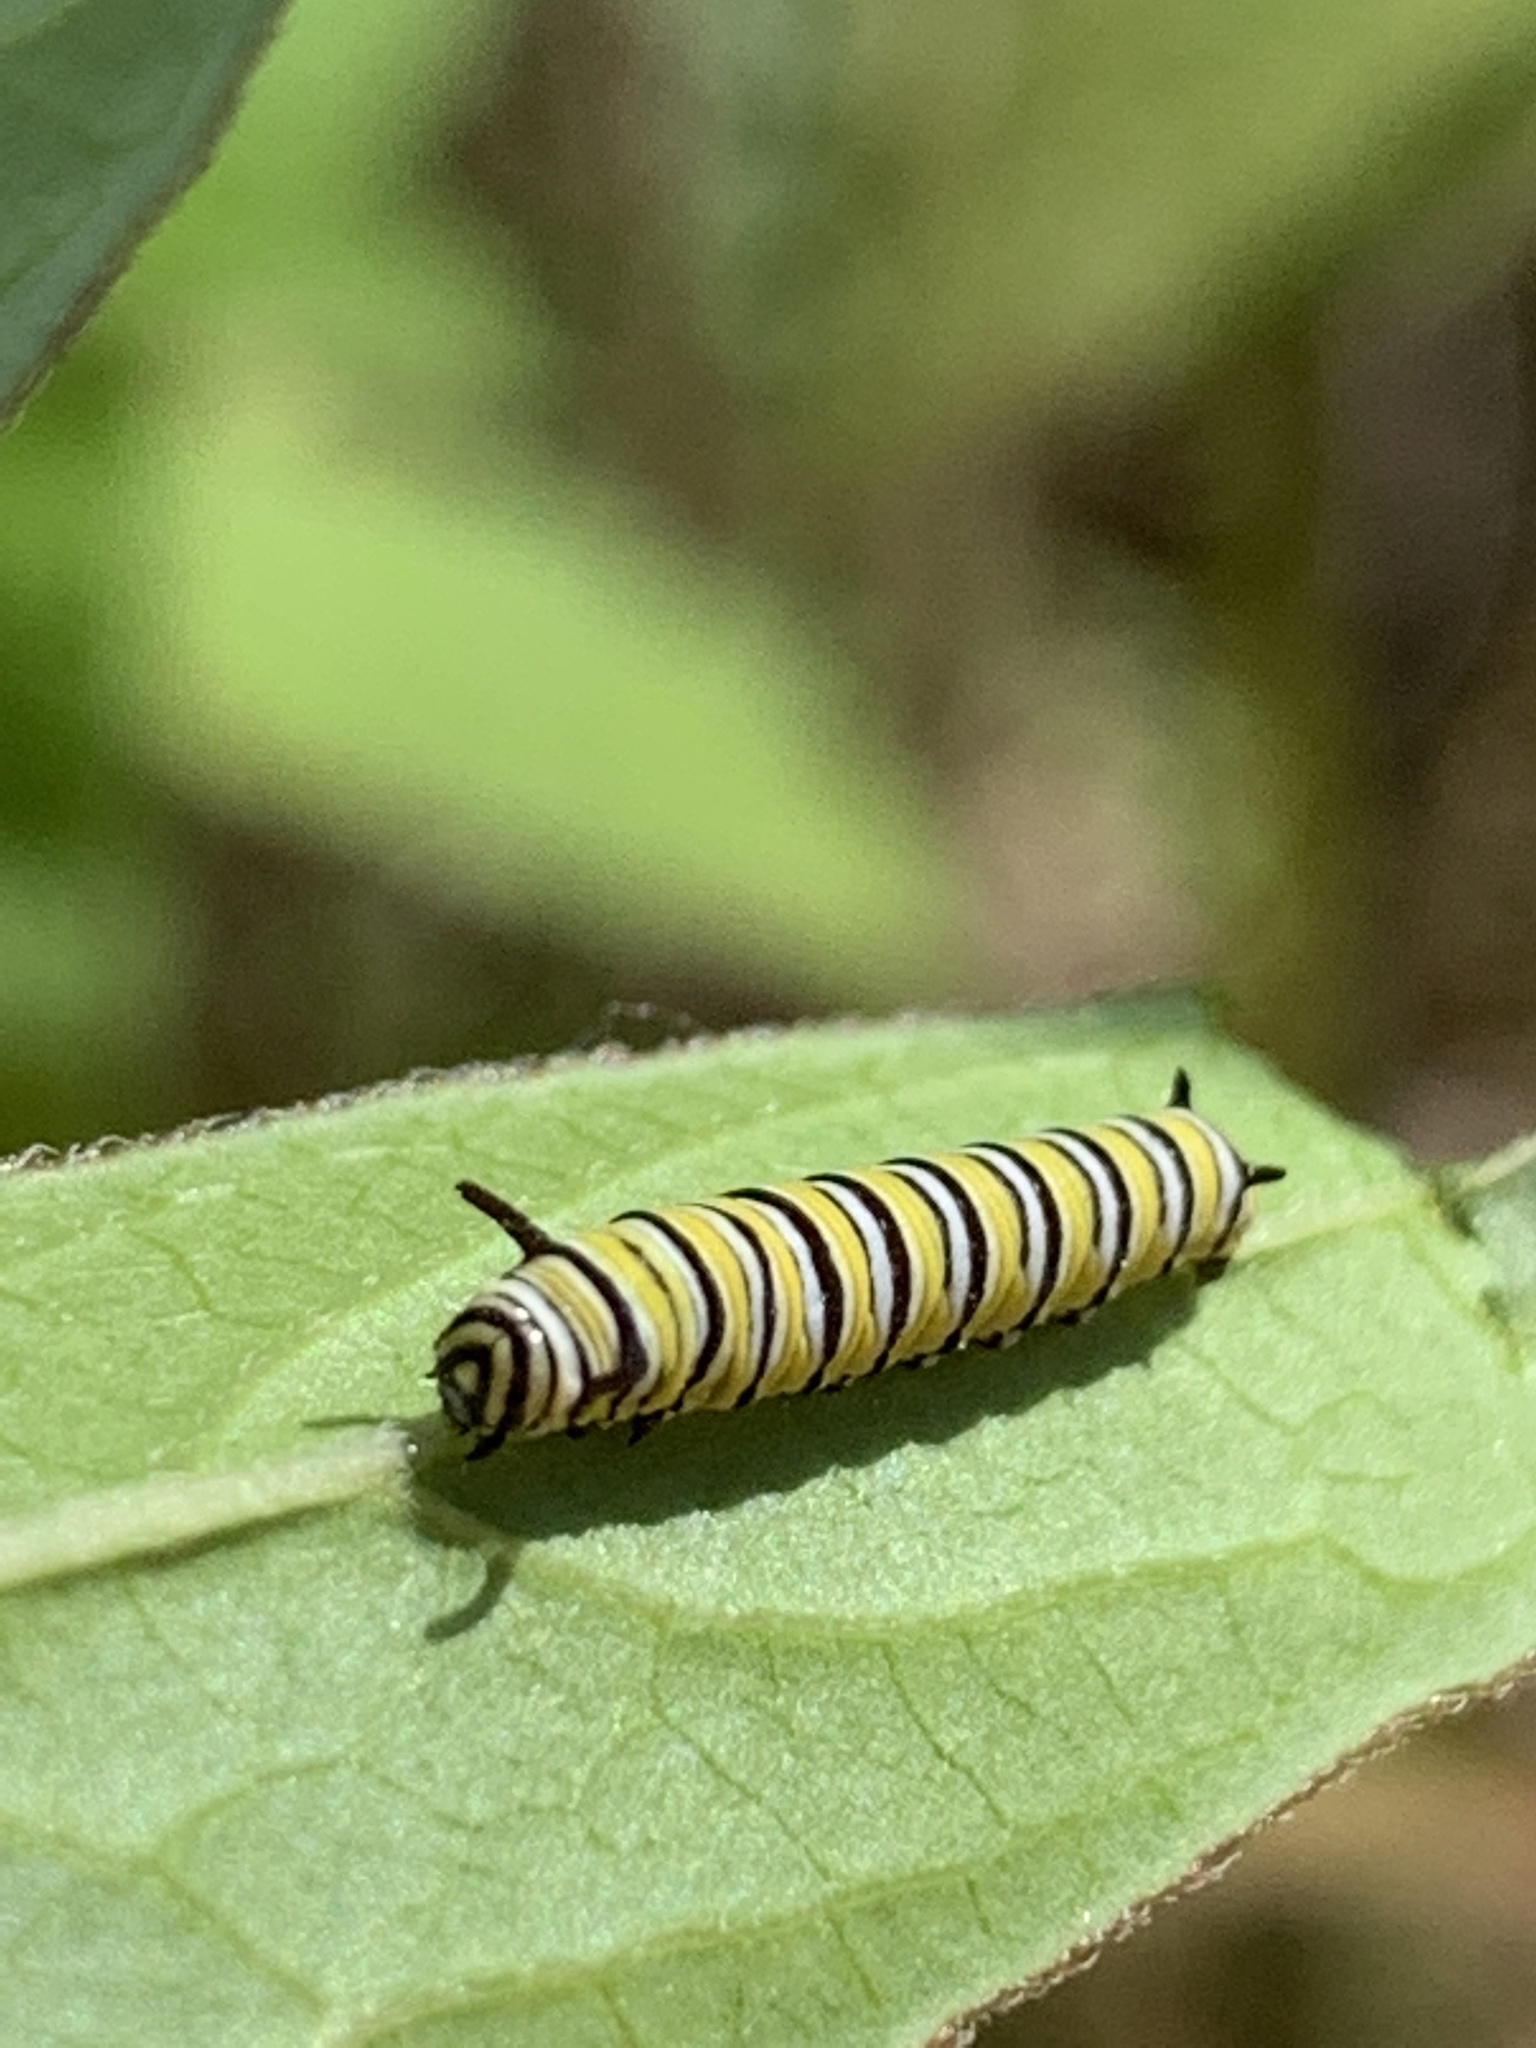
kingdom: Animalia
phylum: Arthropoda
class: Insecta
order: Lepidoptera
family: Nymphalidae
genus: Danaus
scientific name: Danaus plexippus
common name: Monarch
